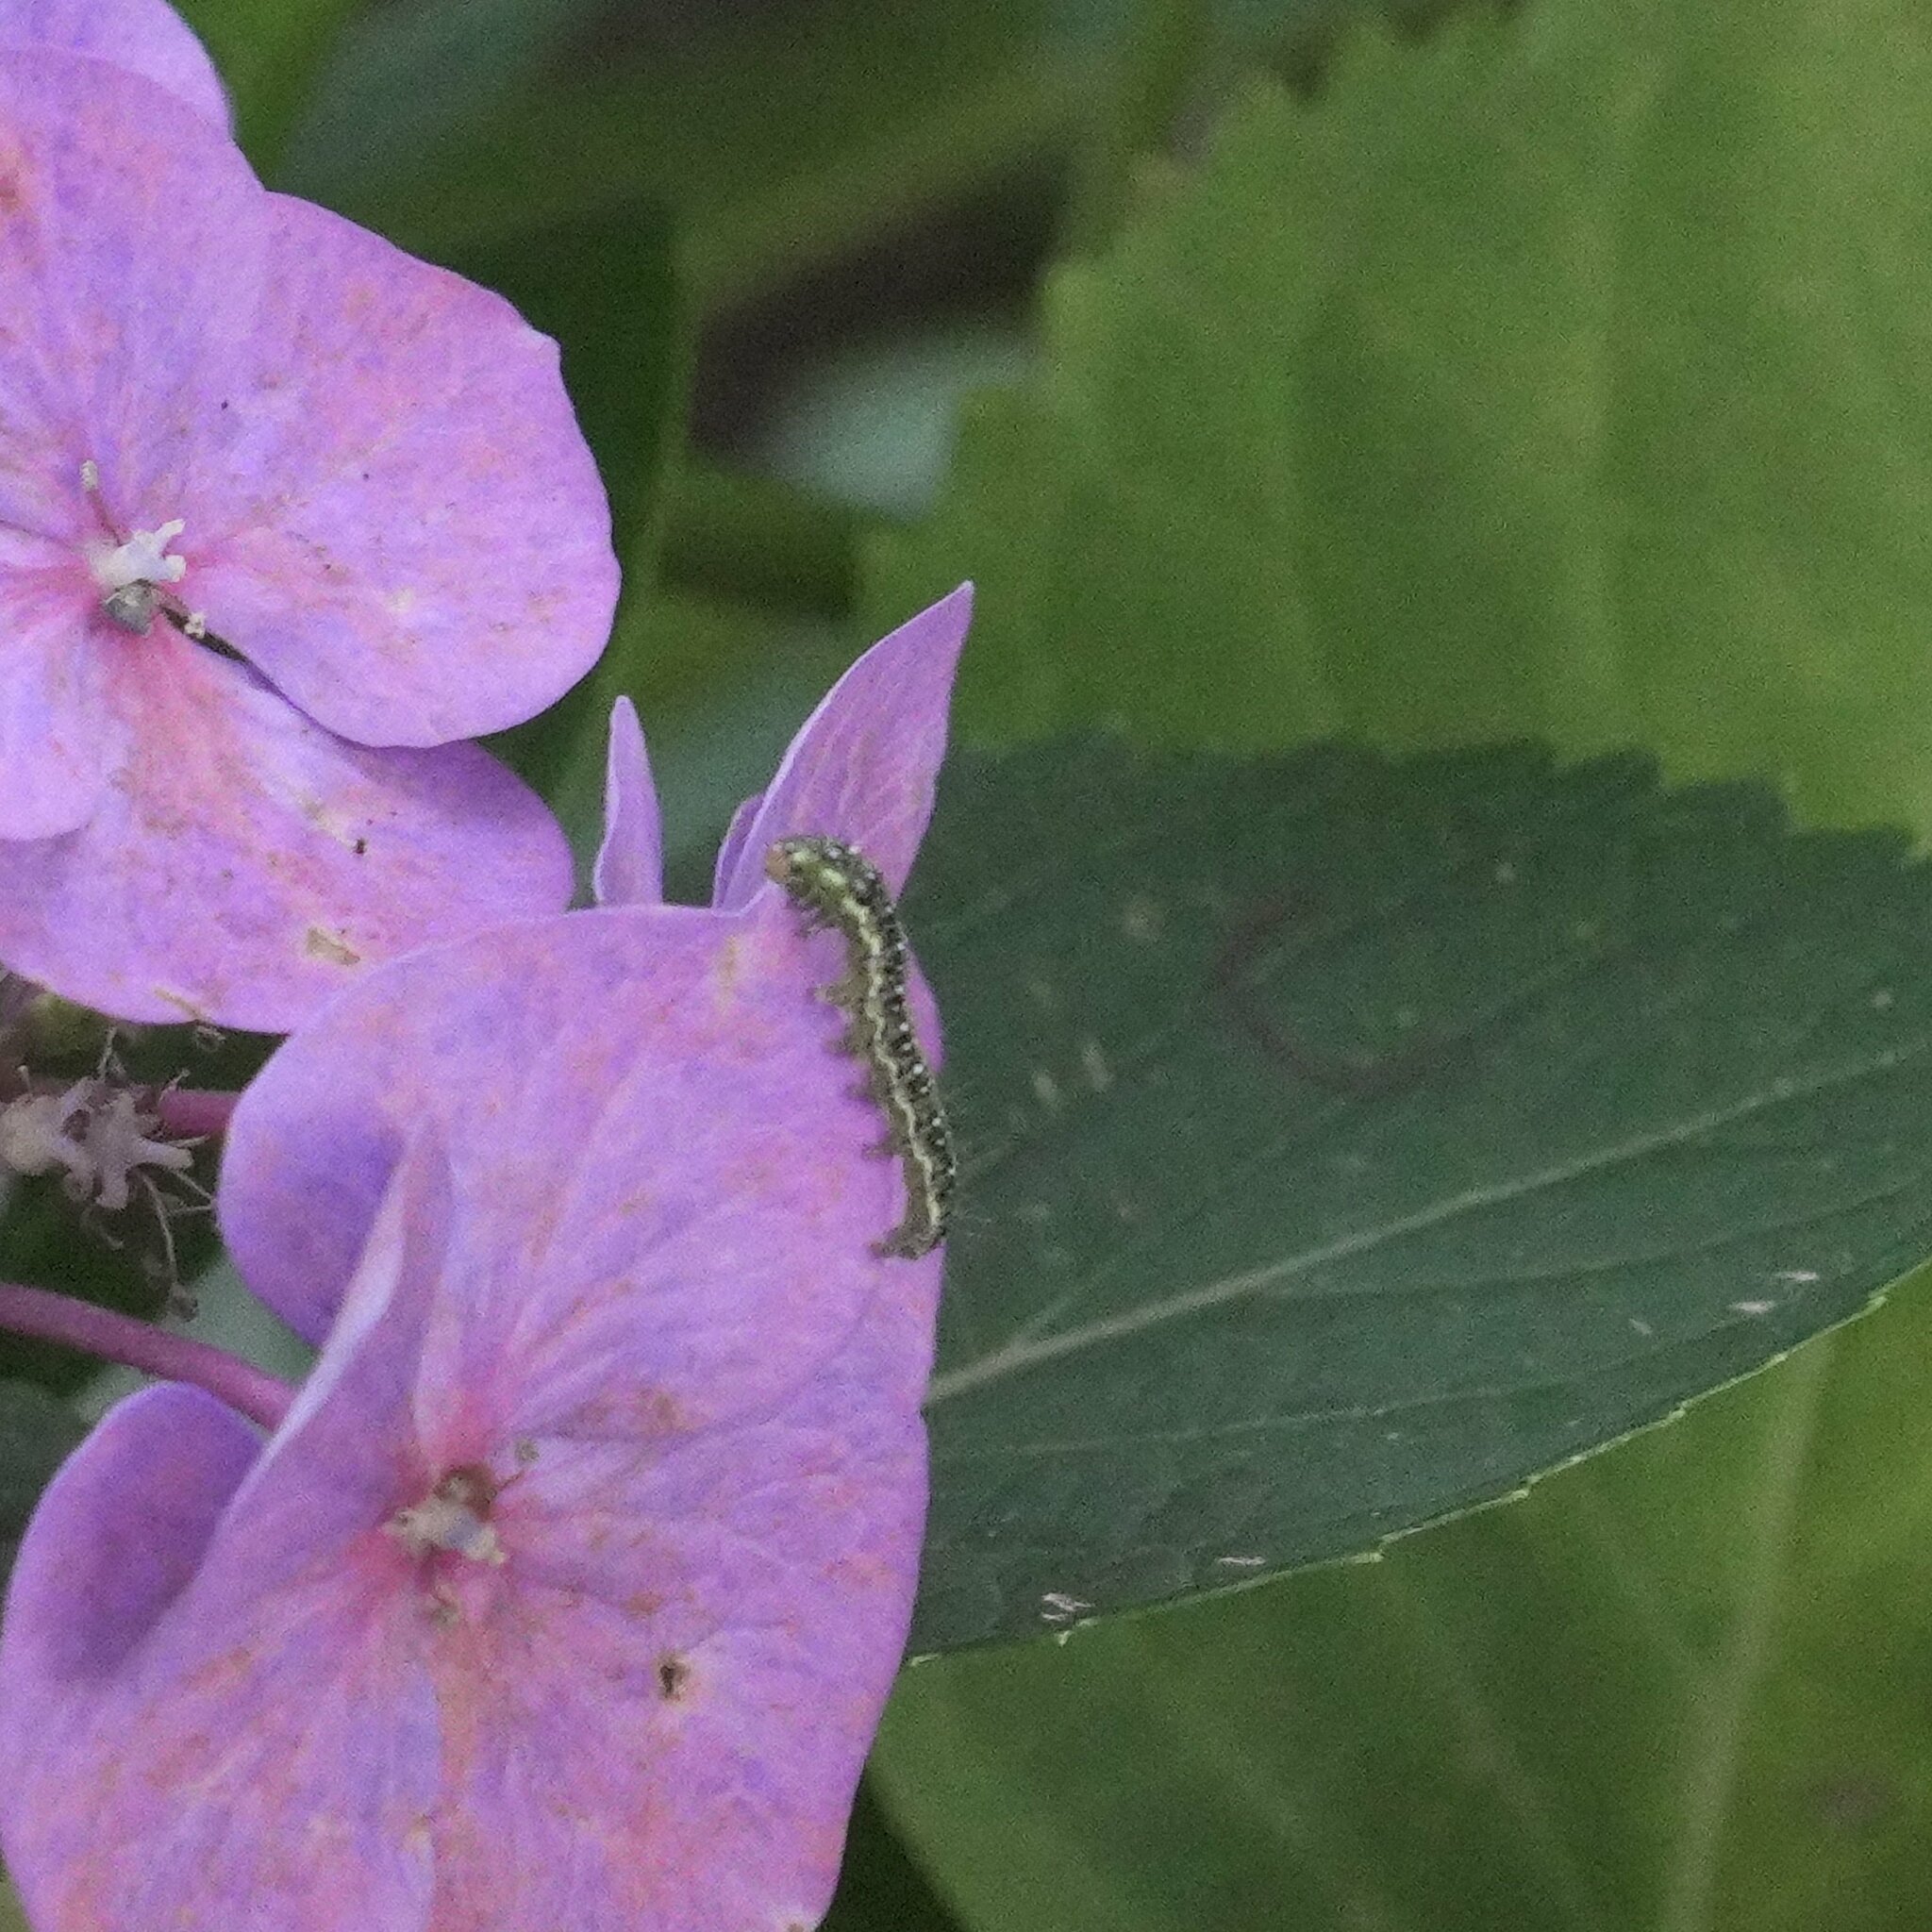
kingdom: Animalia
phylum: Arthropoda
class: Insecta
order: Lepidoptera
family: Crambidae
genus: Uresiphita
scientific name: Uresiphita
